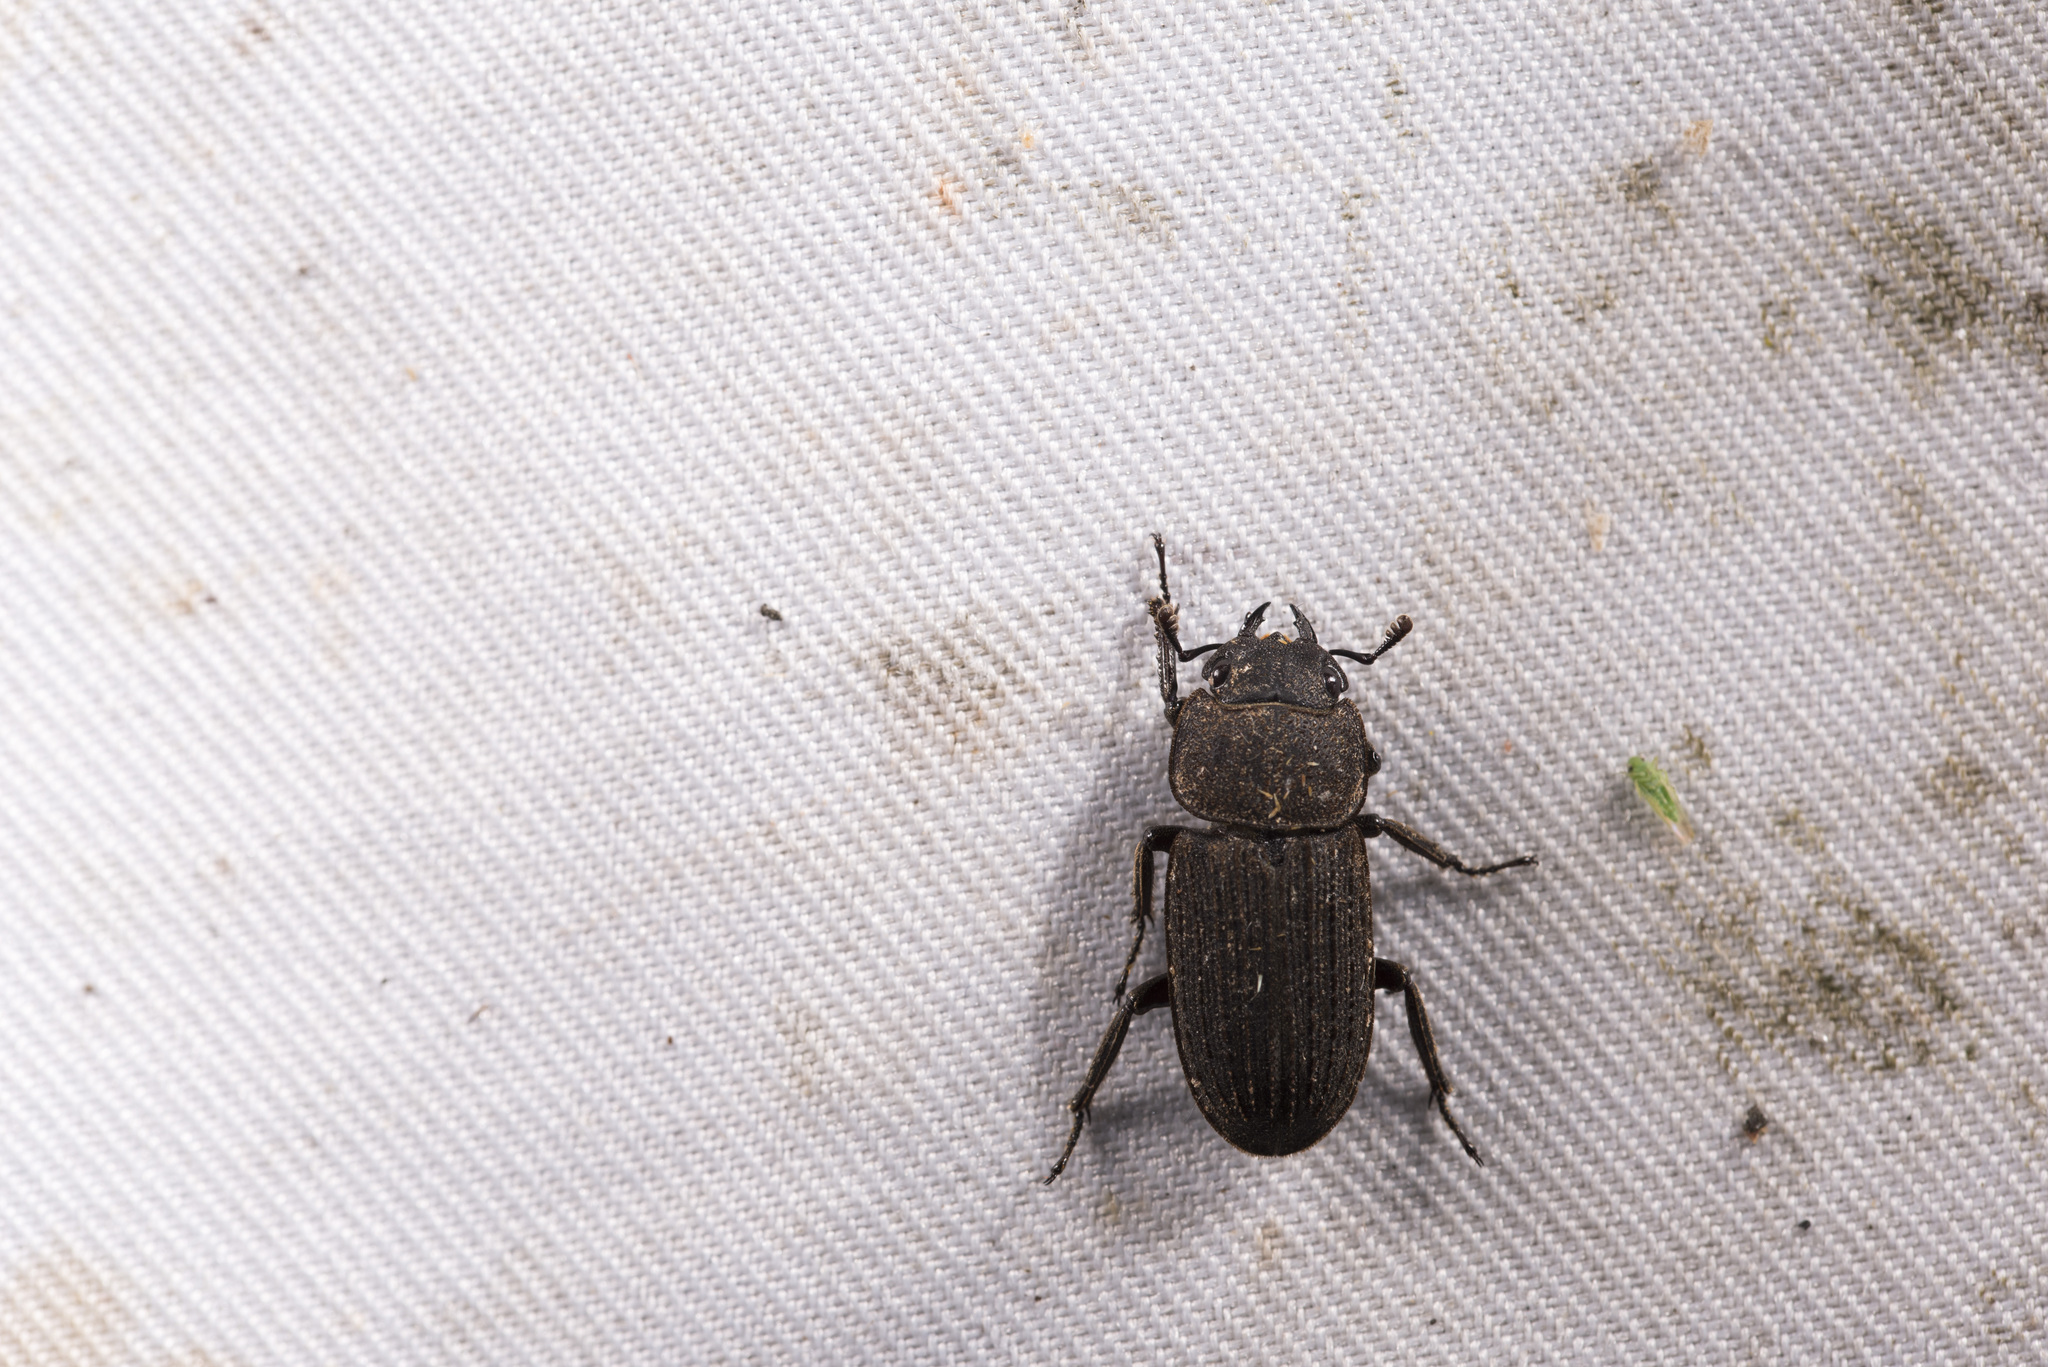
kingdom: Animalia
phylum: Arthropoda
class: Insecta
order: Coleoptera
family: Lucanidae
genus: Dorcus
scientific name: Dorcus
